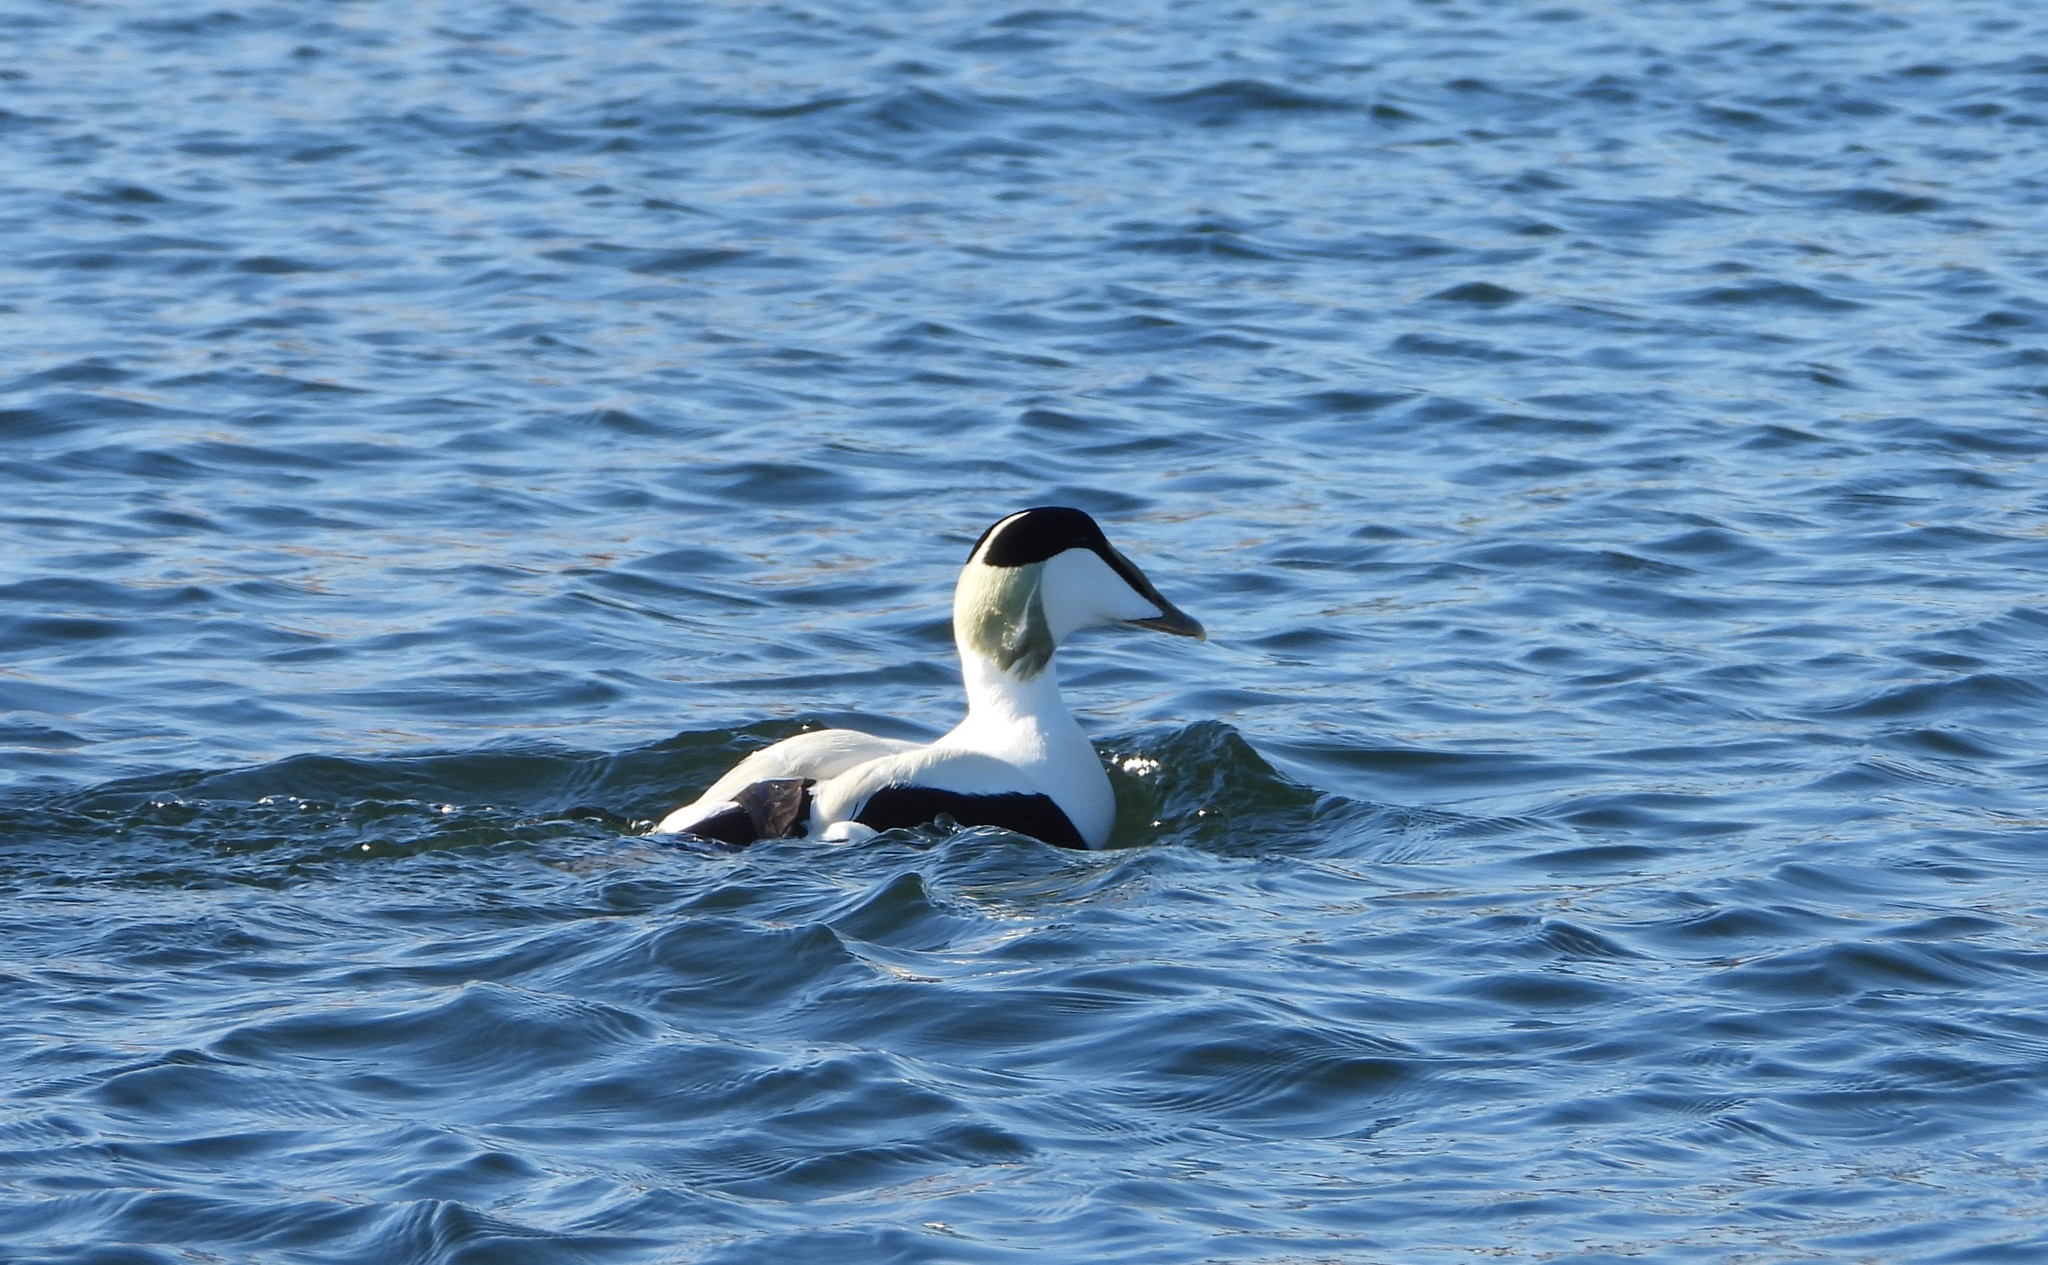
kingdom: Animalia
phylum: Chordata
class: Aves
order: Anseriformes
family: Anatidae
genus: Somateria
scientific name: Somateria mollissima
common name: Common eider
